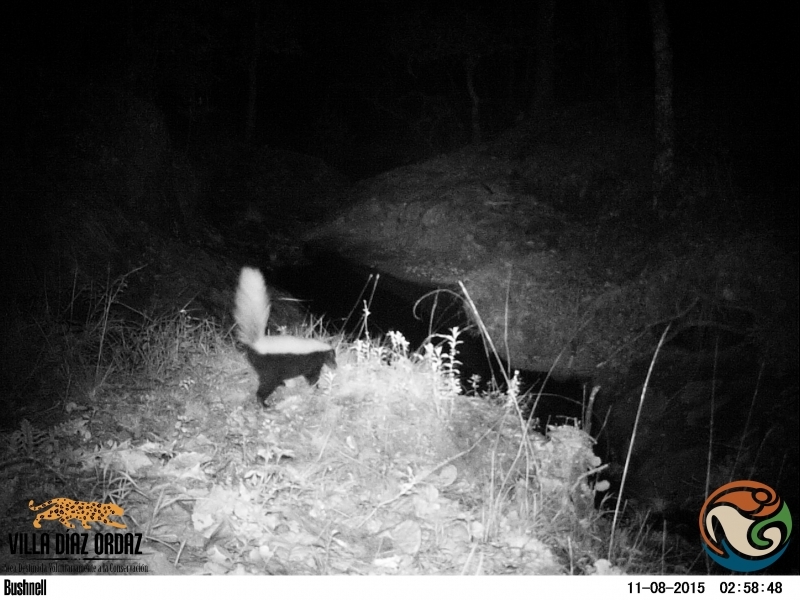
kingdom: Animalia
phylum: Chordata
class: Mammalia
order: Carnivora
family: Mephitidae
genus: Conepatus
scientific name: Conepatus leuconotus
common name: Eastern hog-nosed skunk
